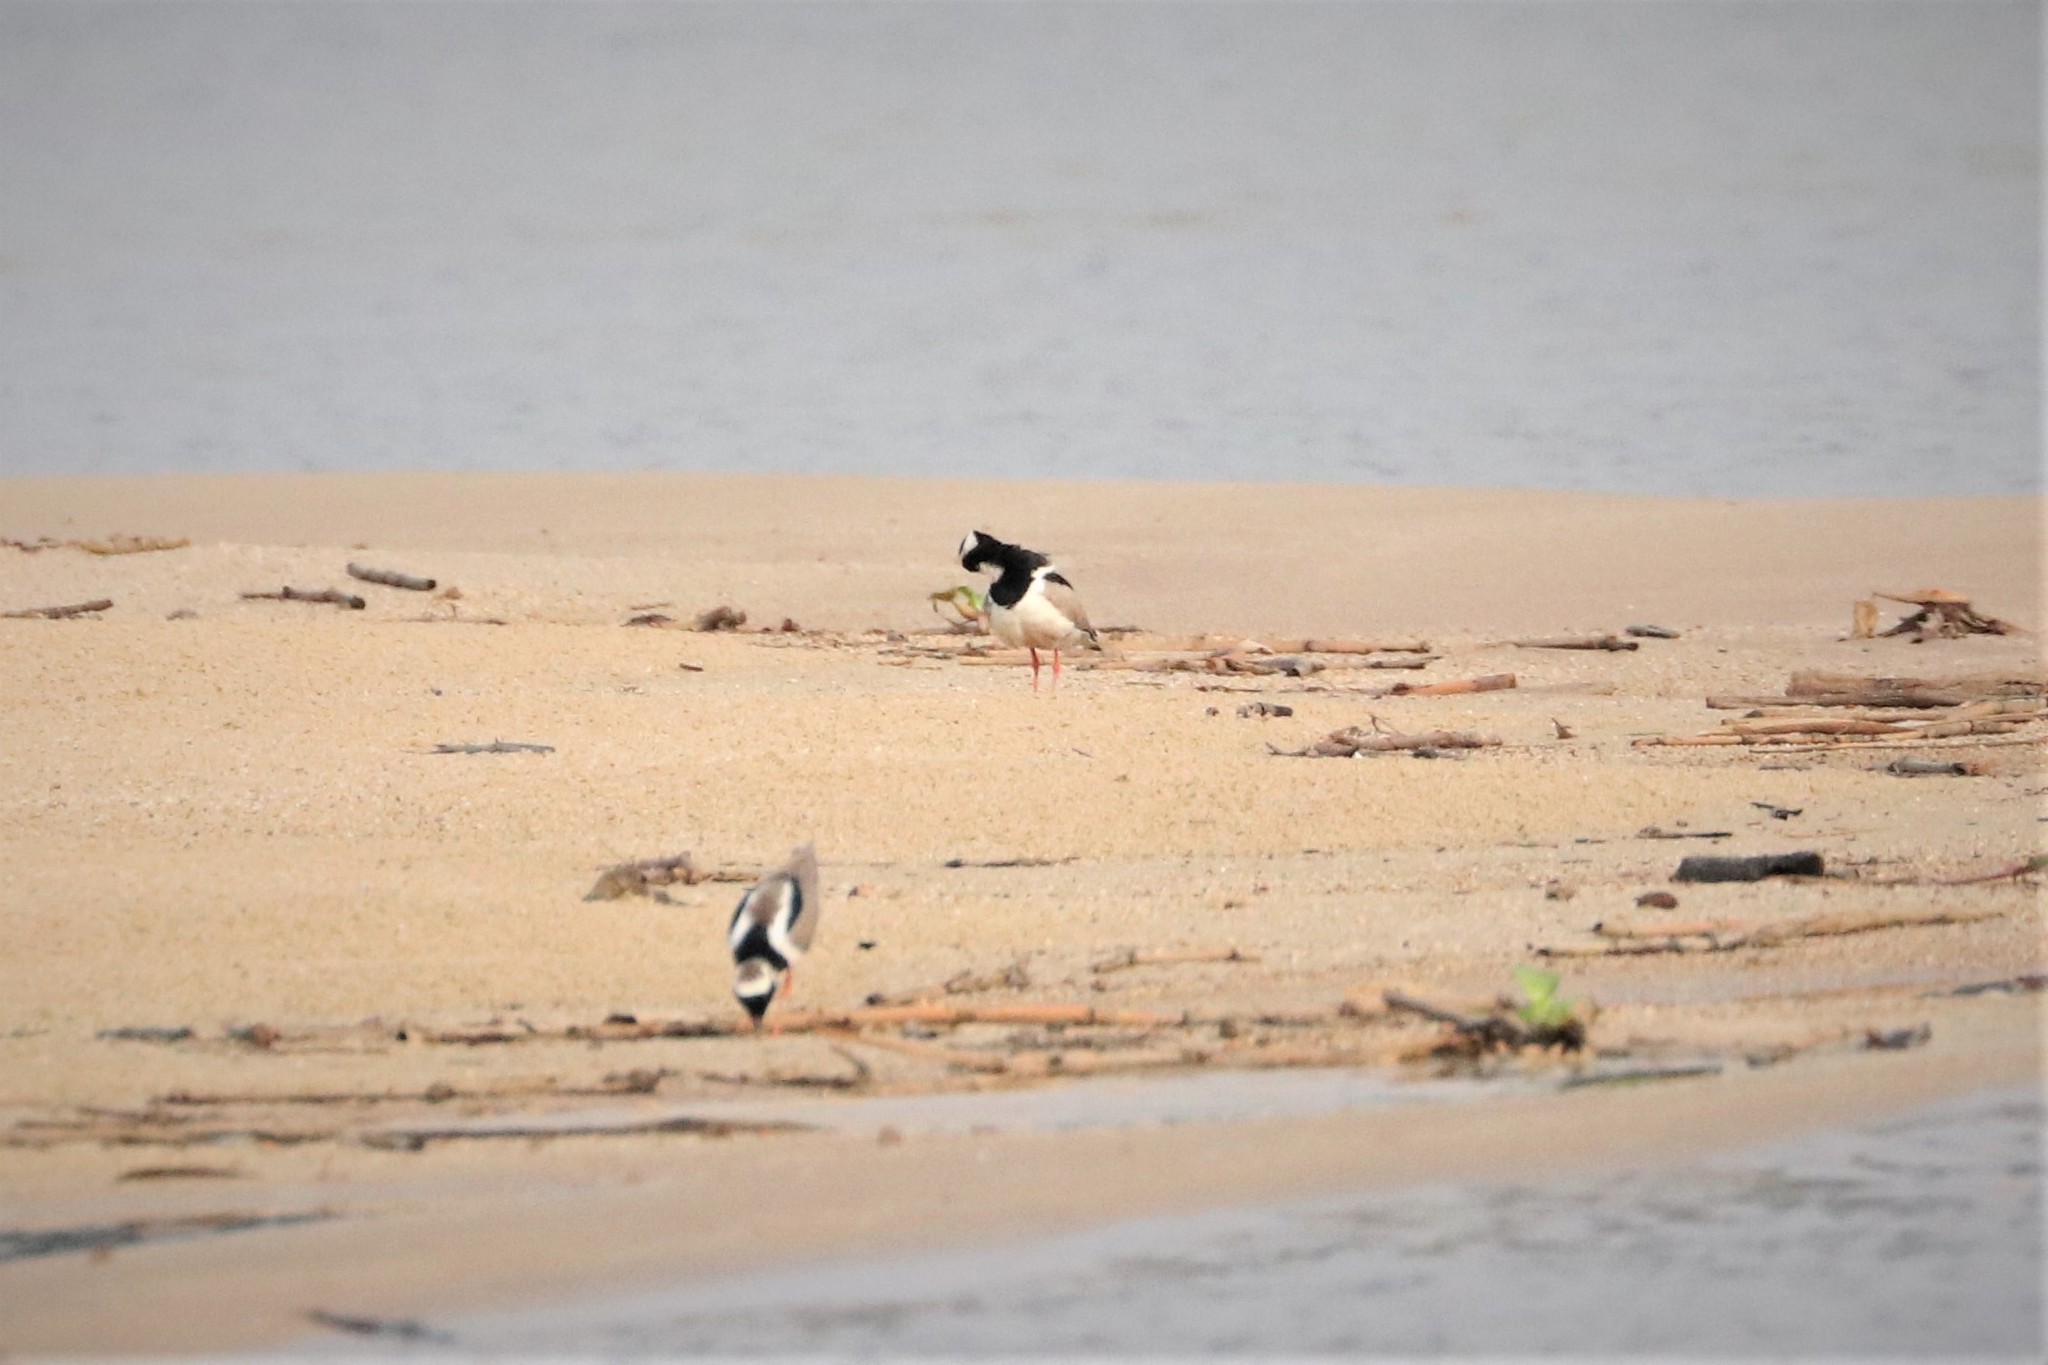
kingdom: Animalia
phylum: Chordata
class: Aves
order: Charadriiformes
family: Charadriidae
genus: Hoploxypterus
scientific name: Hoploxypterus cayanus
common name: Pied plover
